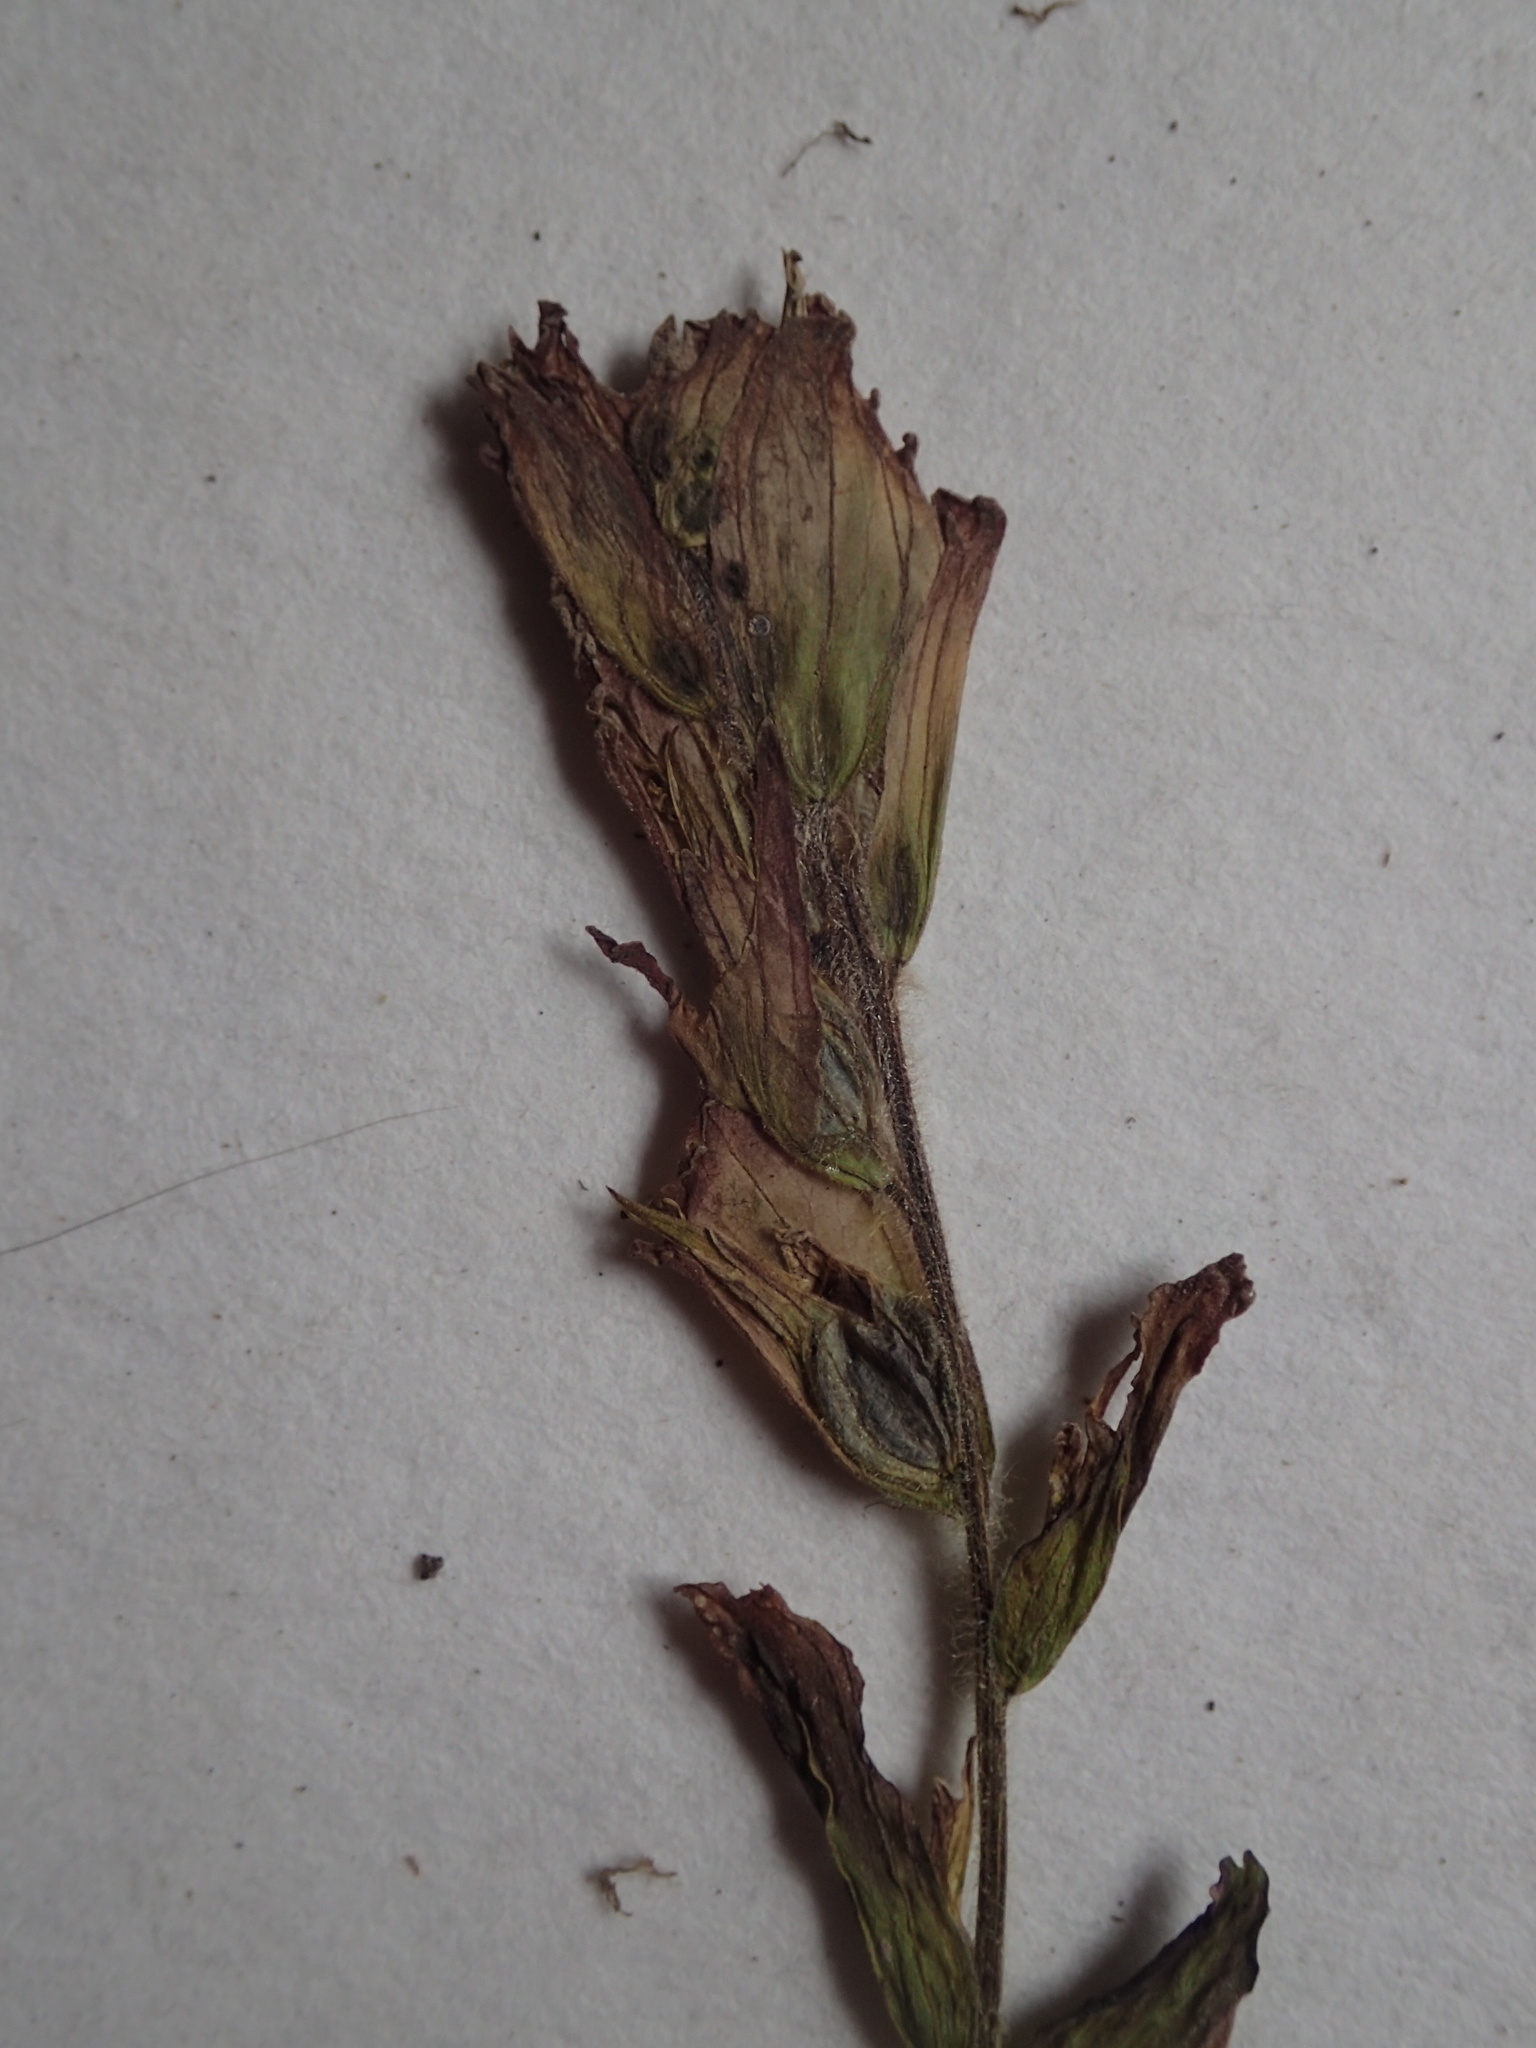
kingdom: Plantae
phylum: Tracheophyta
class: Magnoliopsida
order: Lamiales
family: Orobanchaceae
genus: Castilleja
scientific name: Castilleja septentrionalis
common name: Northeastern paintbrush
